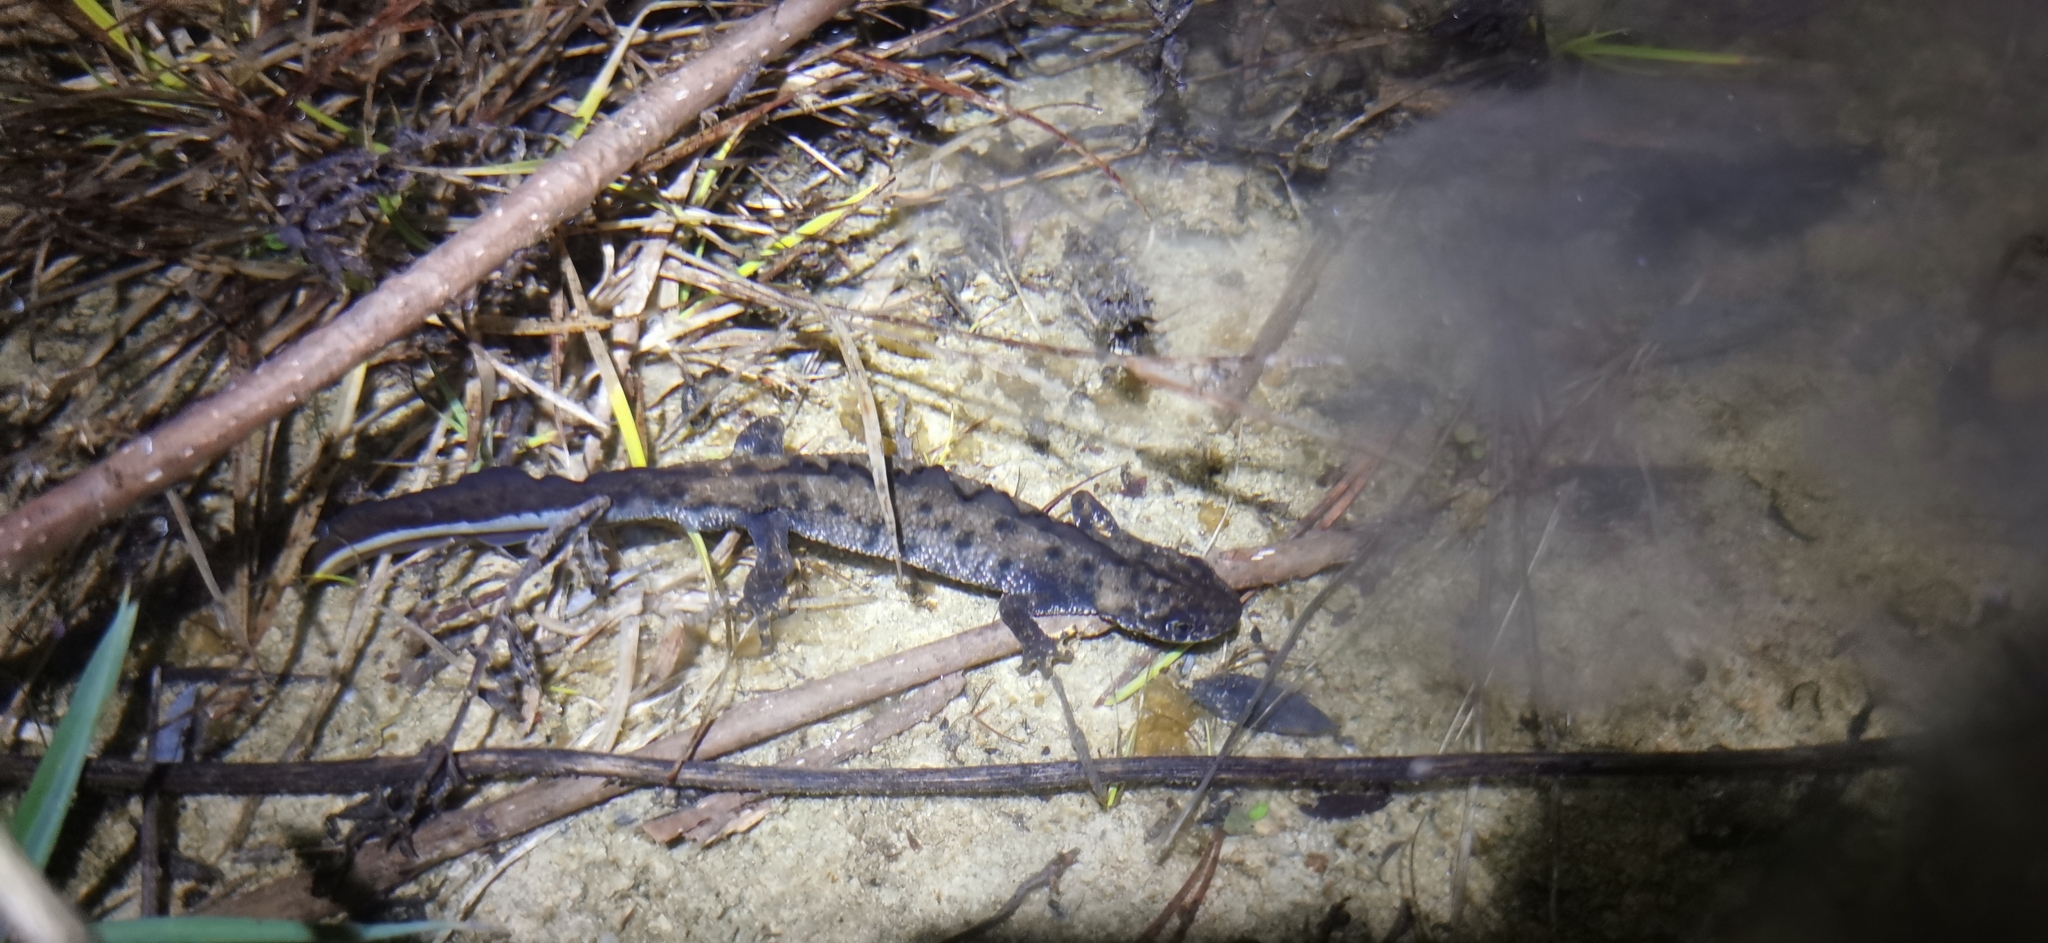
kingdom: Animalia
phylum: Chordata
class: Amphibia
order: Caudata
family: Salamandridae
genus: Triturus
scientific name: Triturus cristatus
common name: Crested newt
